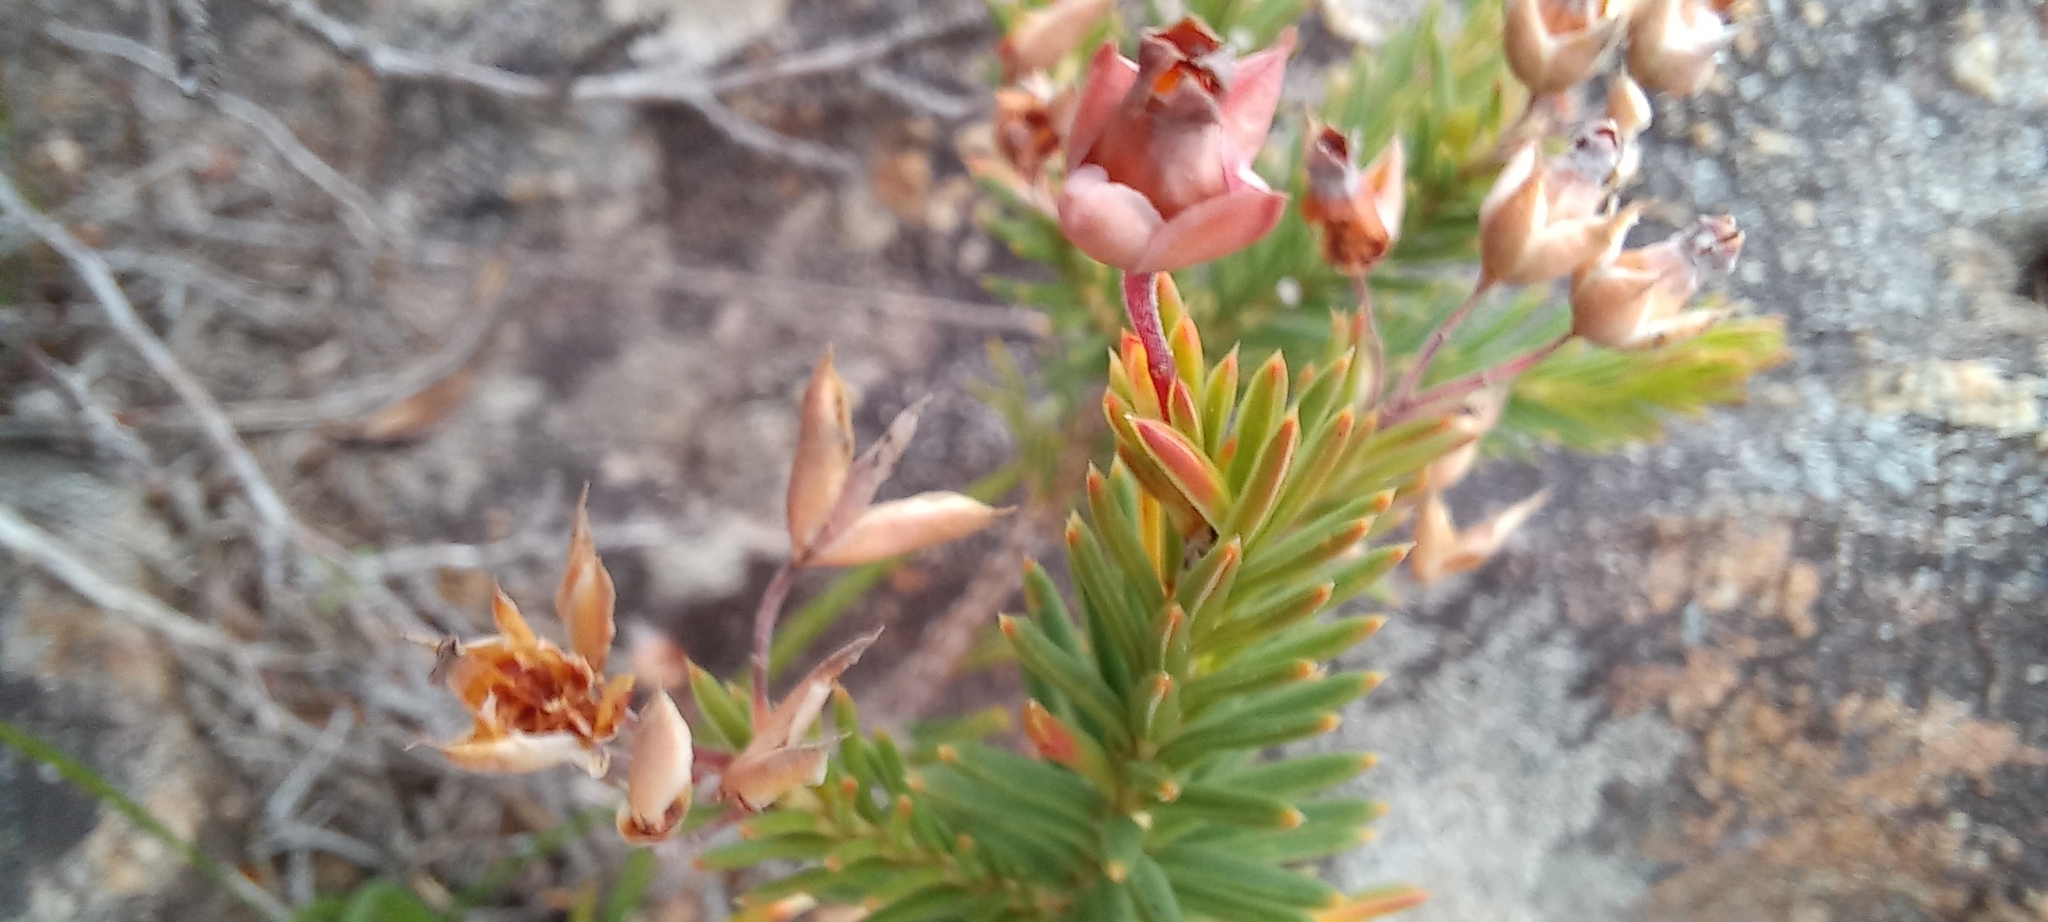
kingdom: Plantae
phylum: Tracheophyta
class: Magnoliopsida
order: Ericales
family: Ericaceae
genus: Erica
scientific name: Erica taxifolia
